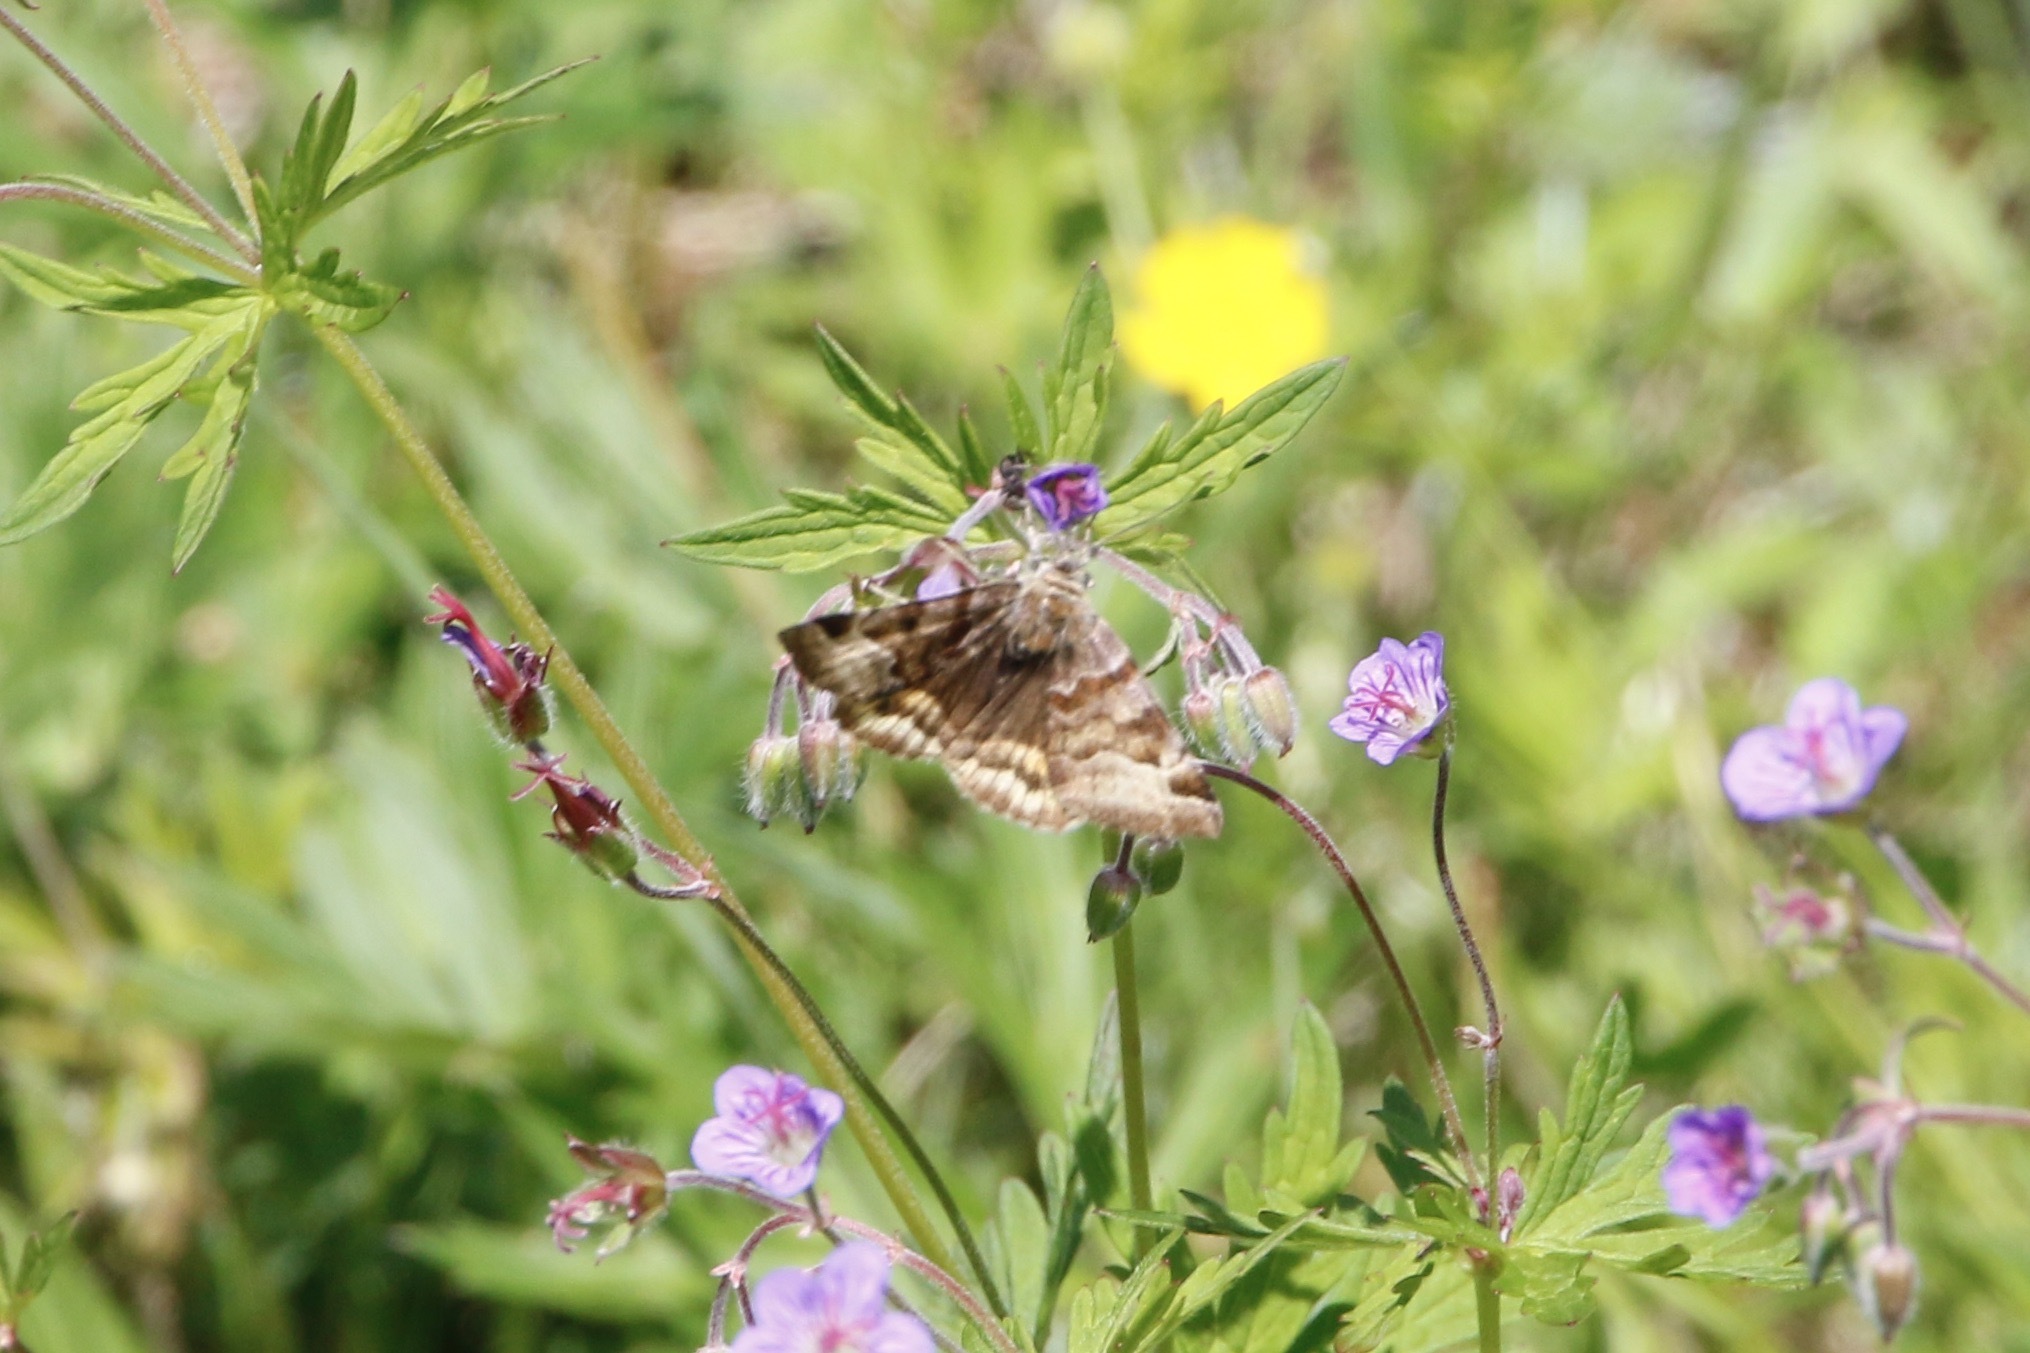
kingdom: Animalia
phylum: Arthropoda
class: Insecta
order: Lepidoptera
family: Erebidae
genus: Euclidia
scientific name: Euclidia glyphica
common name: Burnet companion
